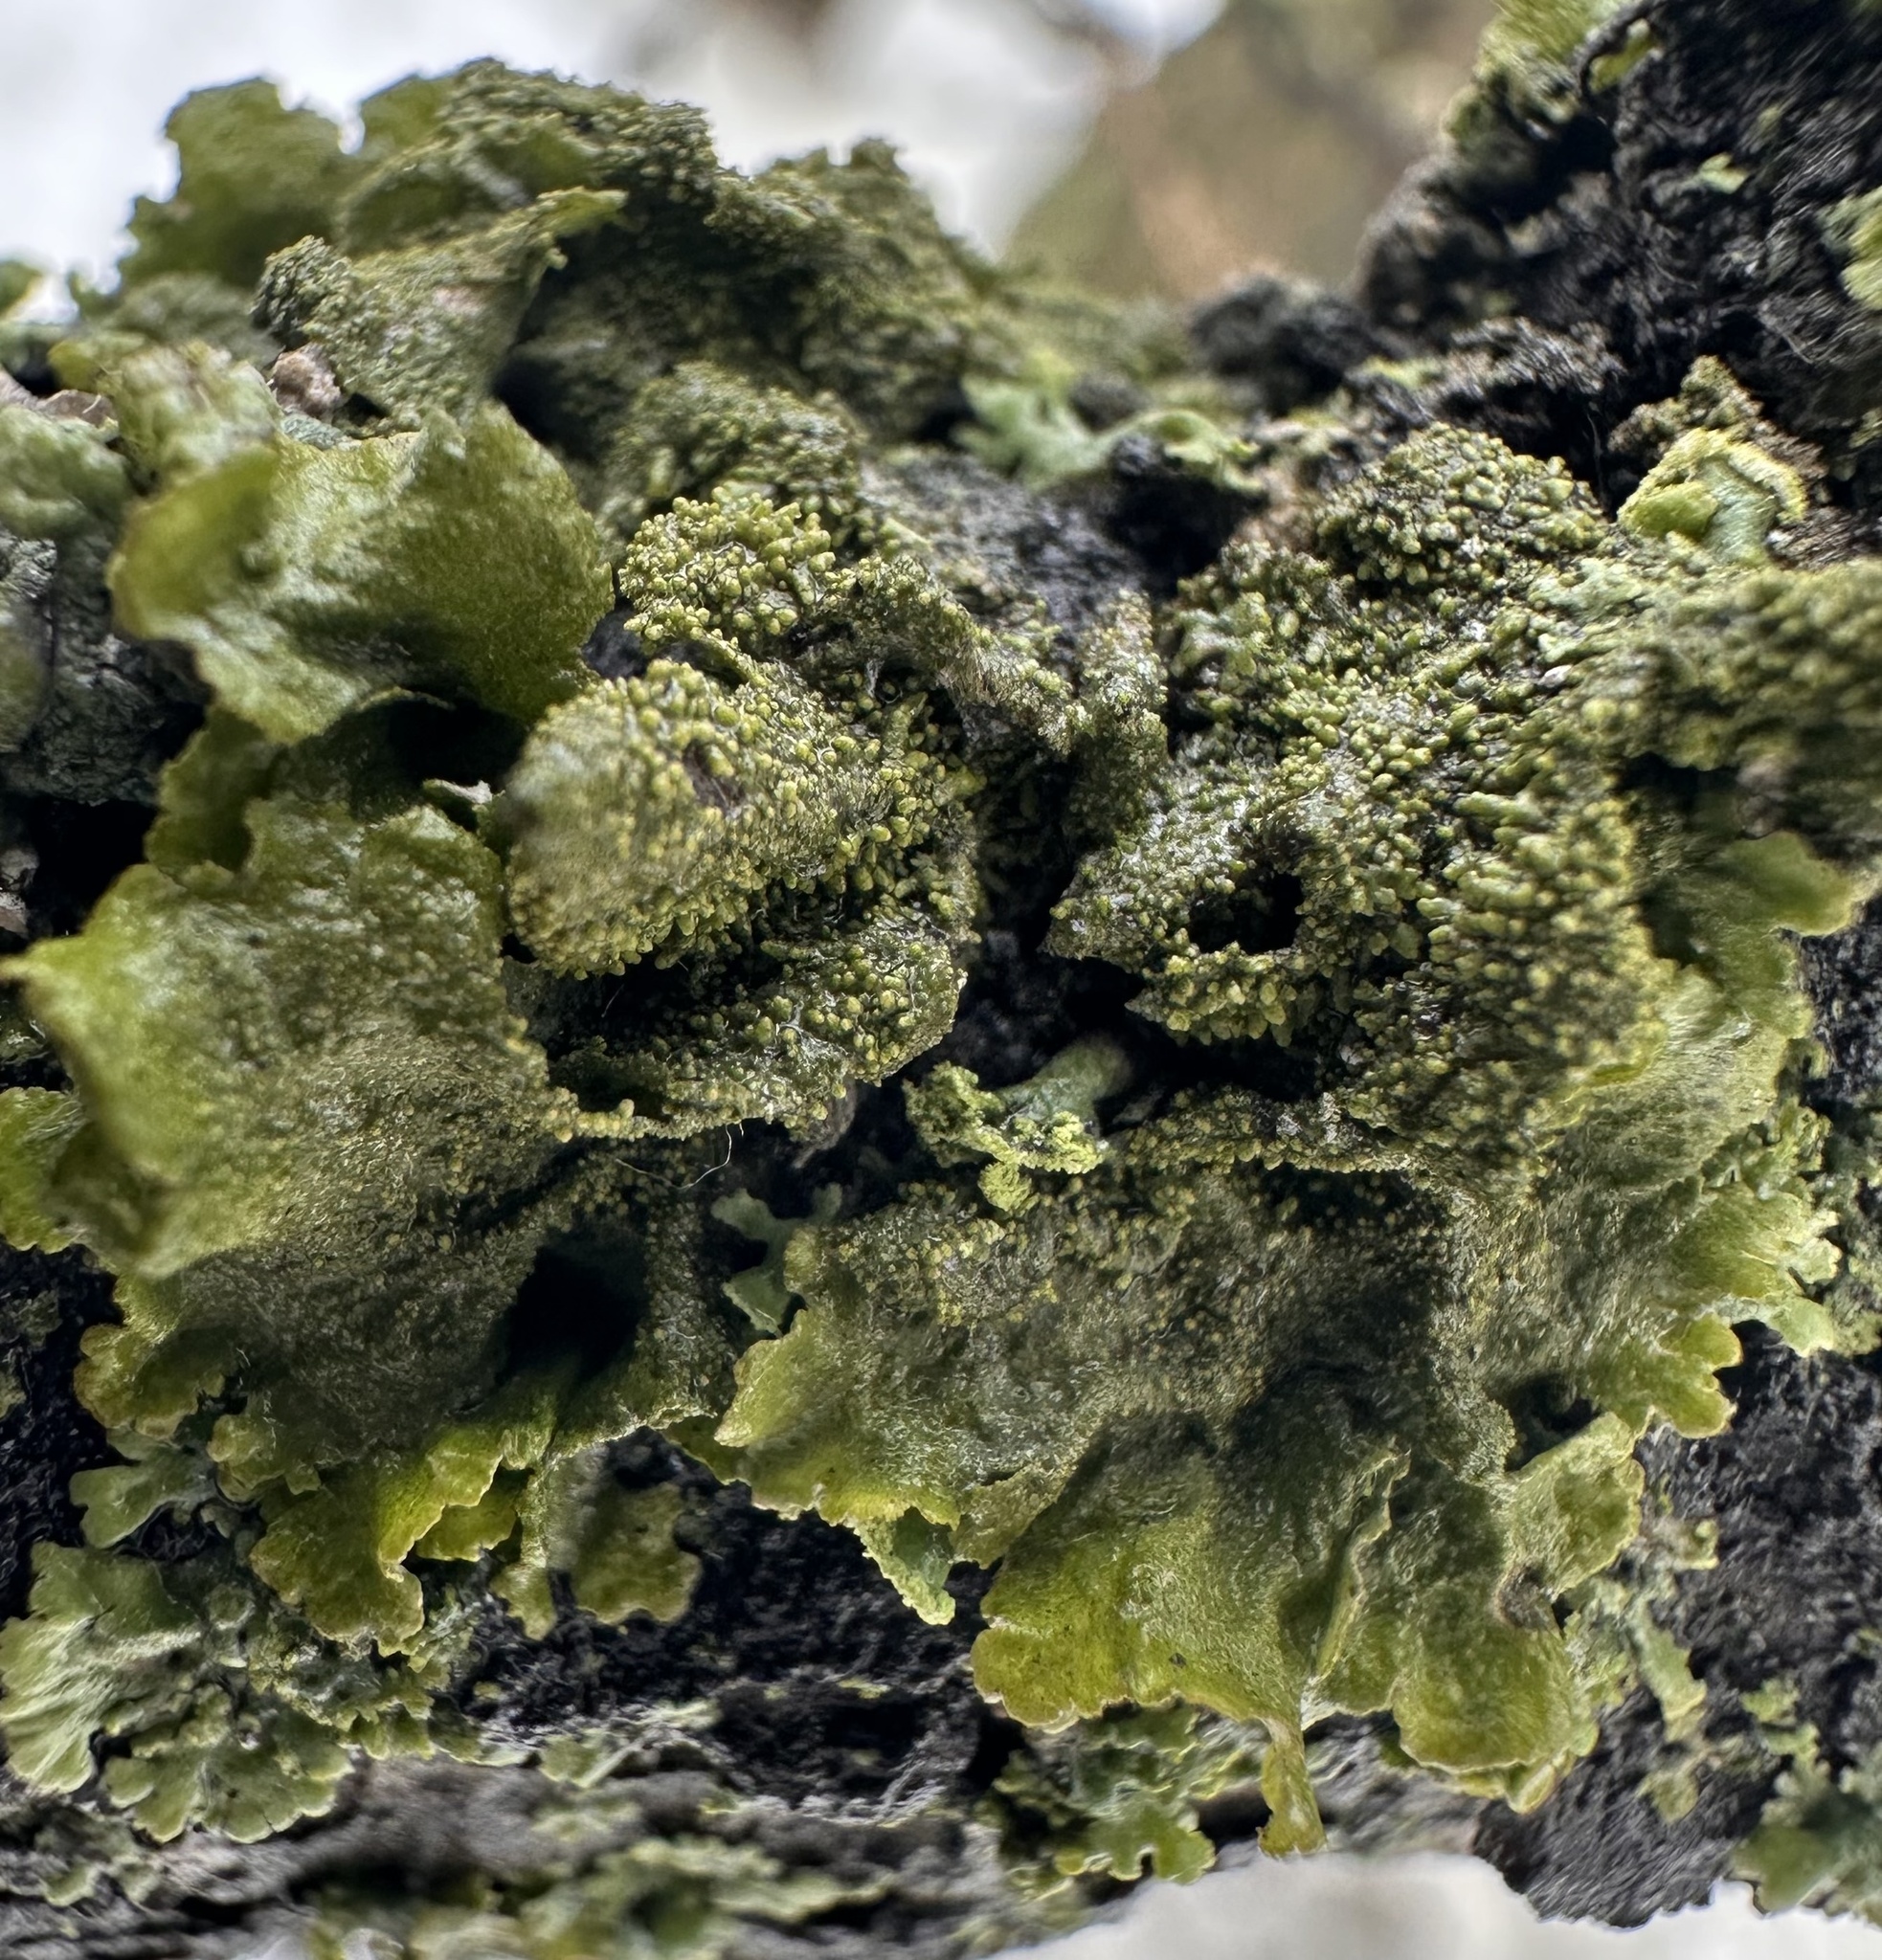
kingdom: Fungi
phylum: Ascomycota
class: Lecanoromycetes
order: Lecanorales
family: Parmeliaceae
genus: Melanohalea
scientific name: Melanohalea exasperatula
